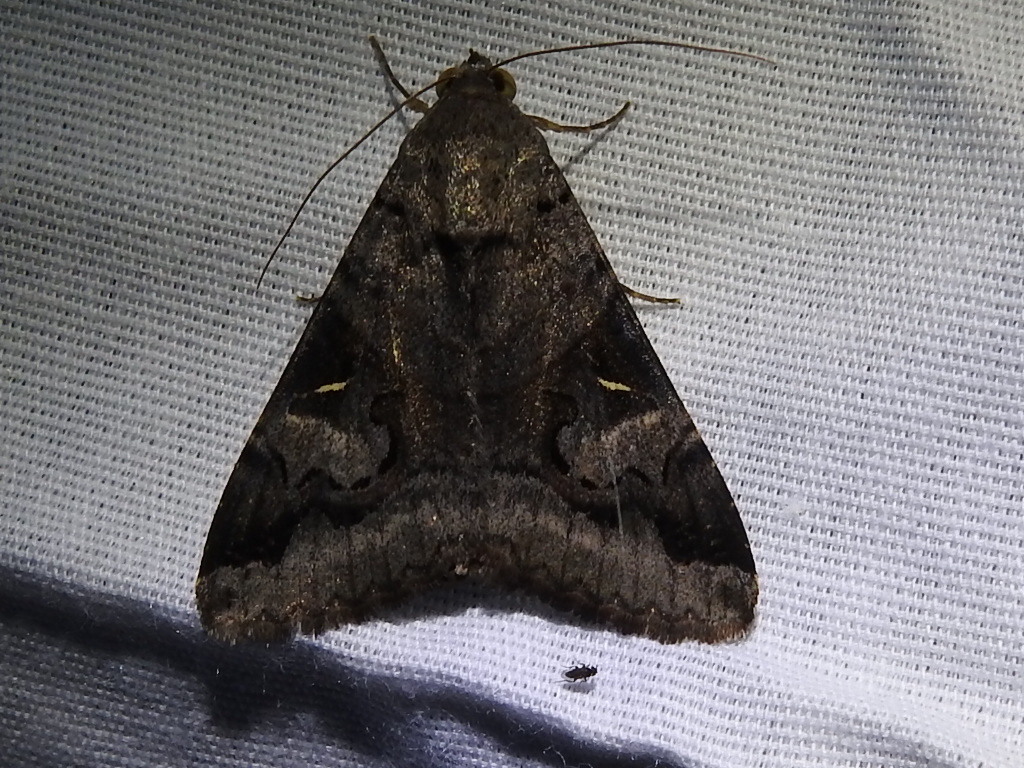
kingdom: Animalia
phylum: Arthropoda
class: Insecta
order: Lepidoptera
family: Erebidae
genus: Melipotis
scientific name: Melipotis indomita
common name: Moth
